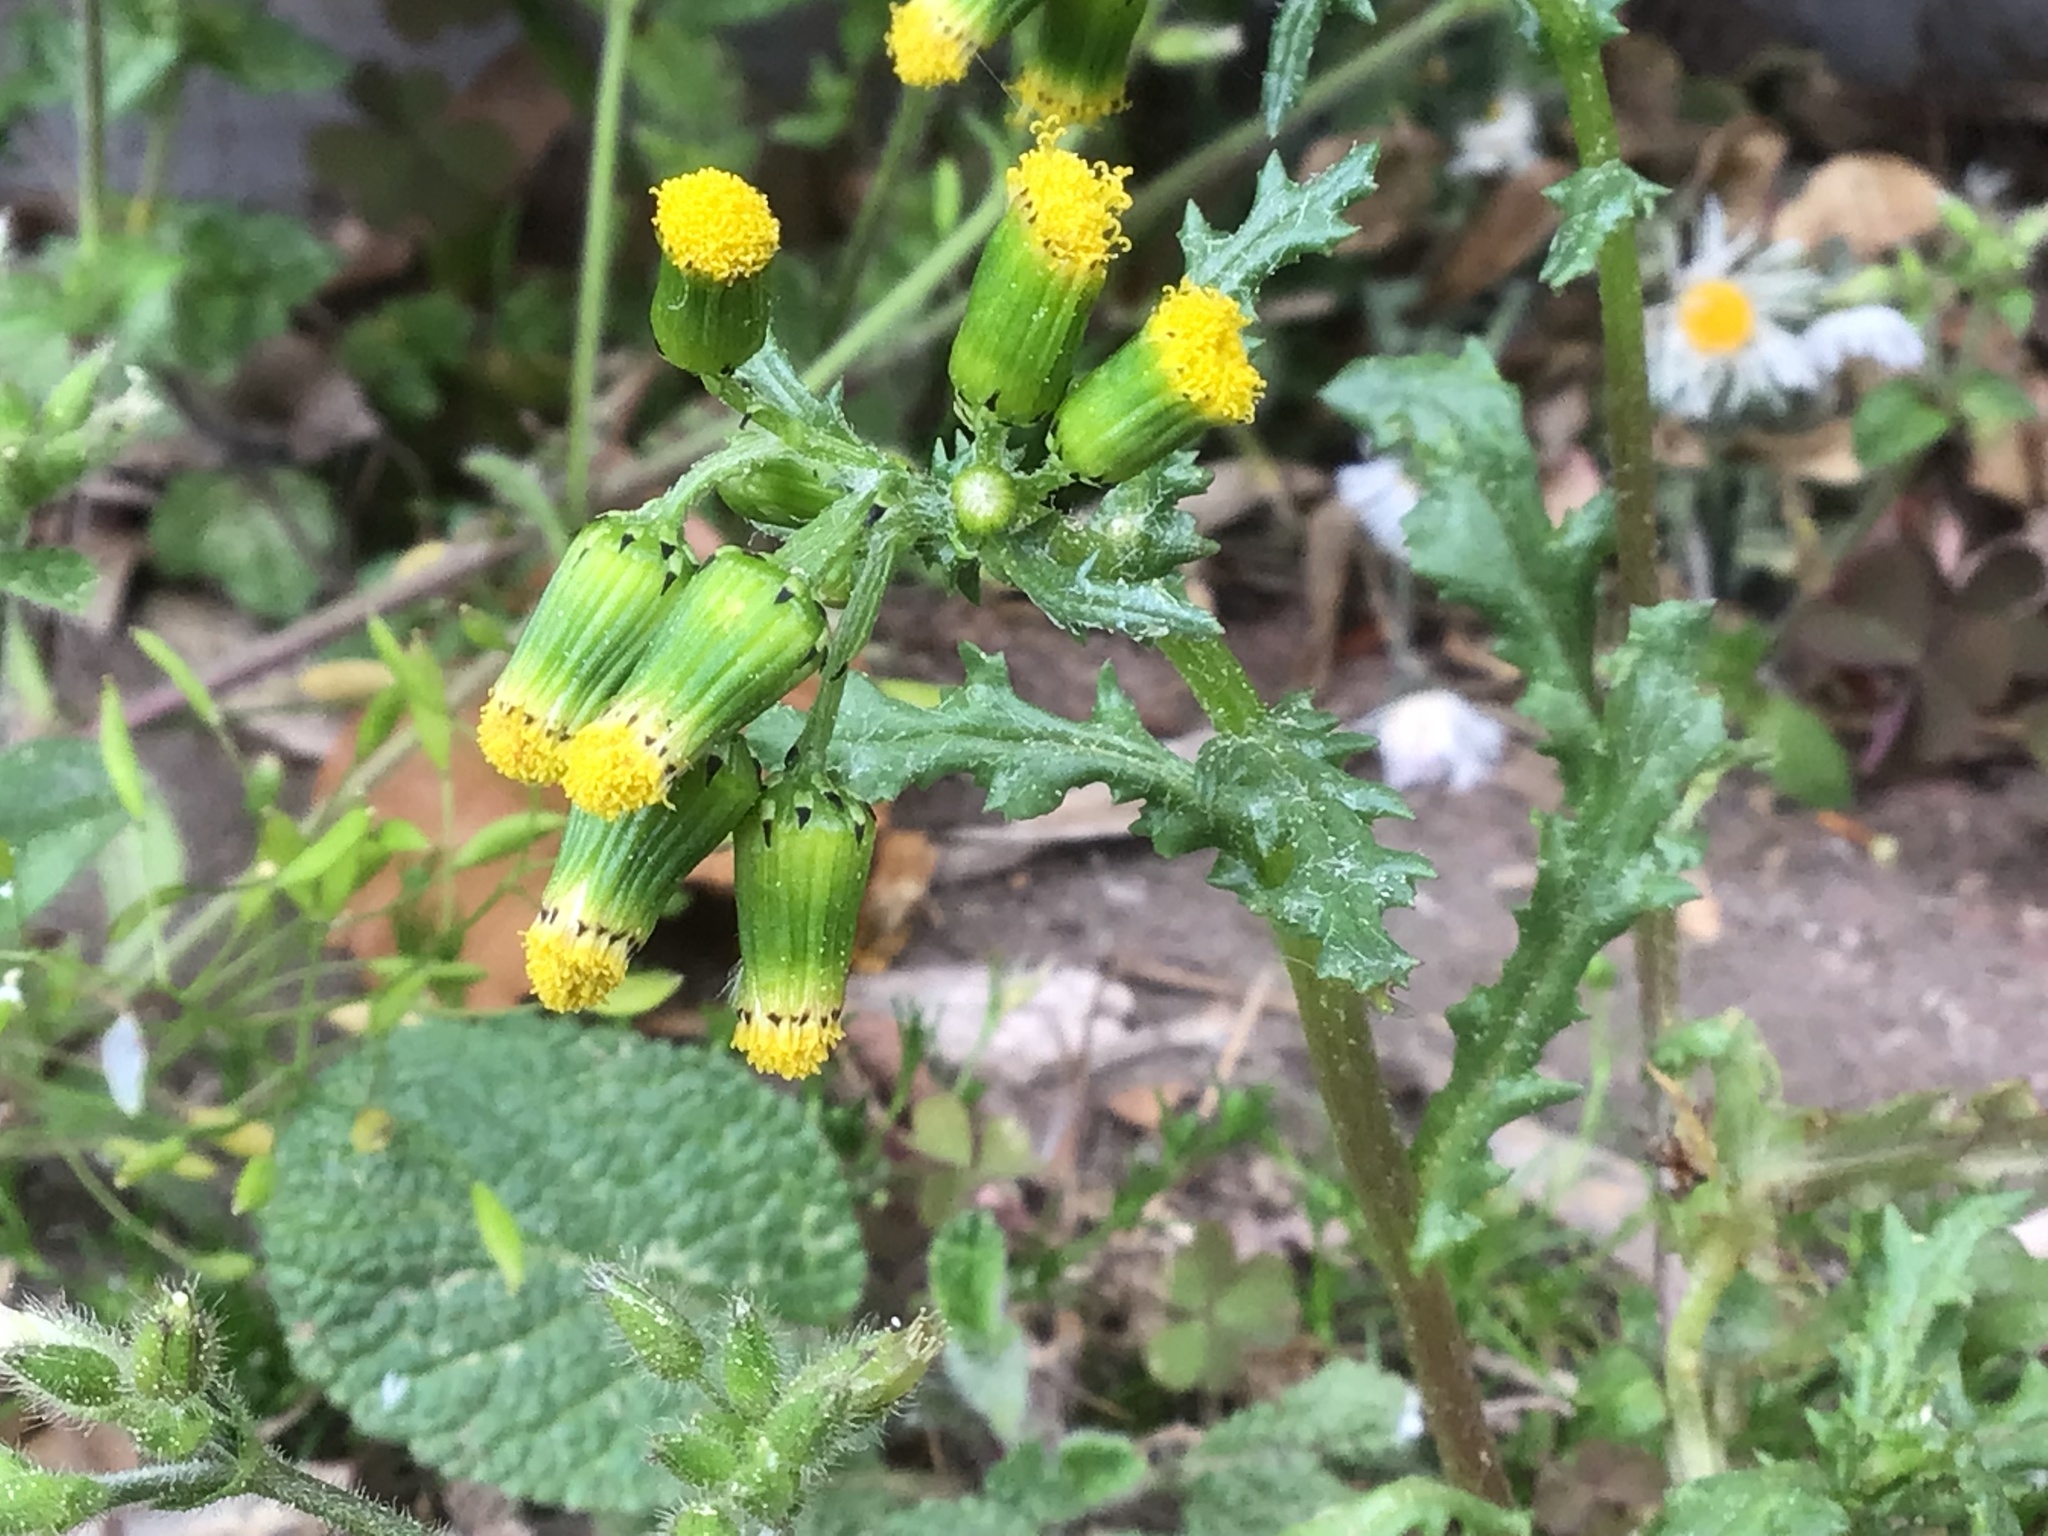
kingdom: Plantae
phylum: Tracheophyta
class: Magnoliopsida
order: Asterales
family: Asteraceae
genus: Senecio
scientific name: Senecio vulgaris
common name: Old-man-in-the-spring
